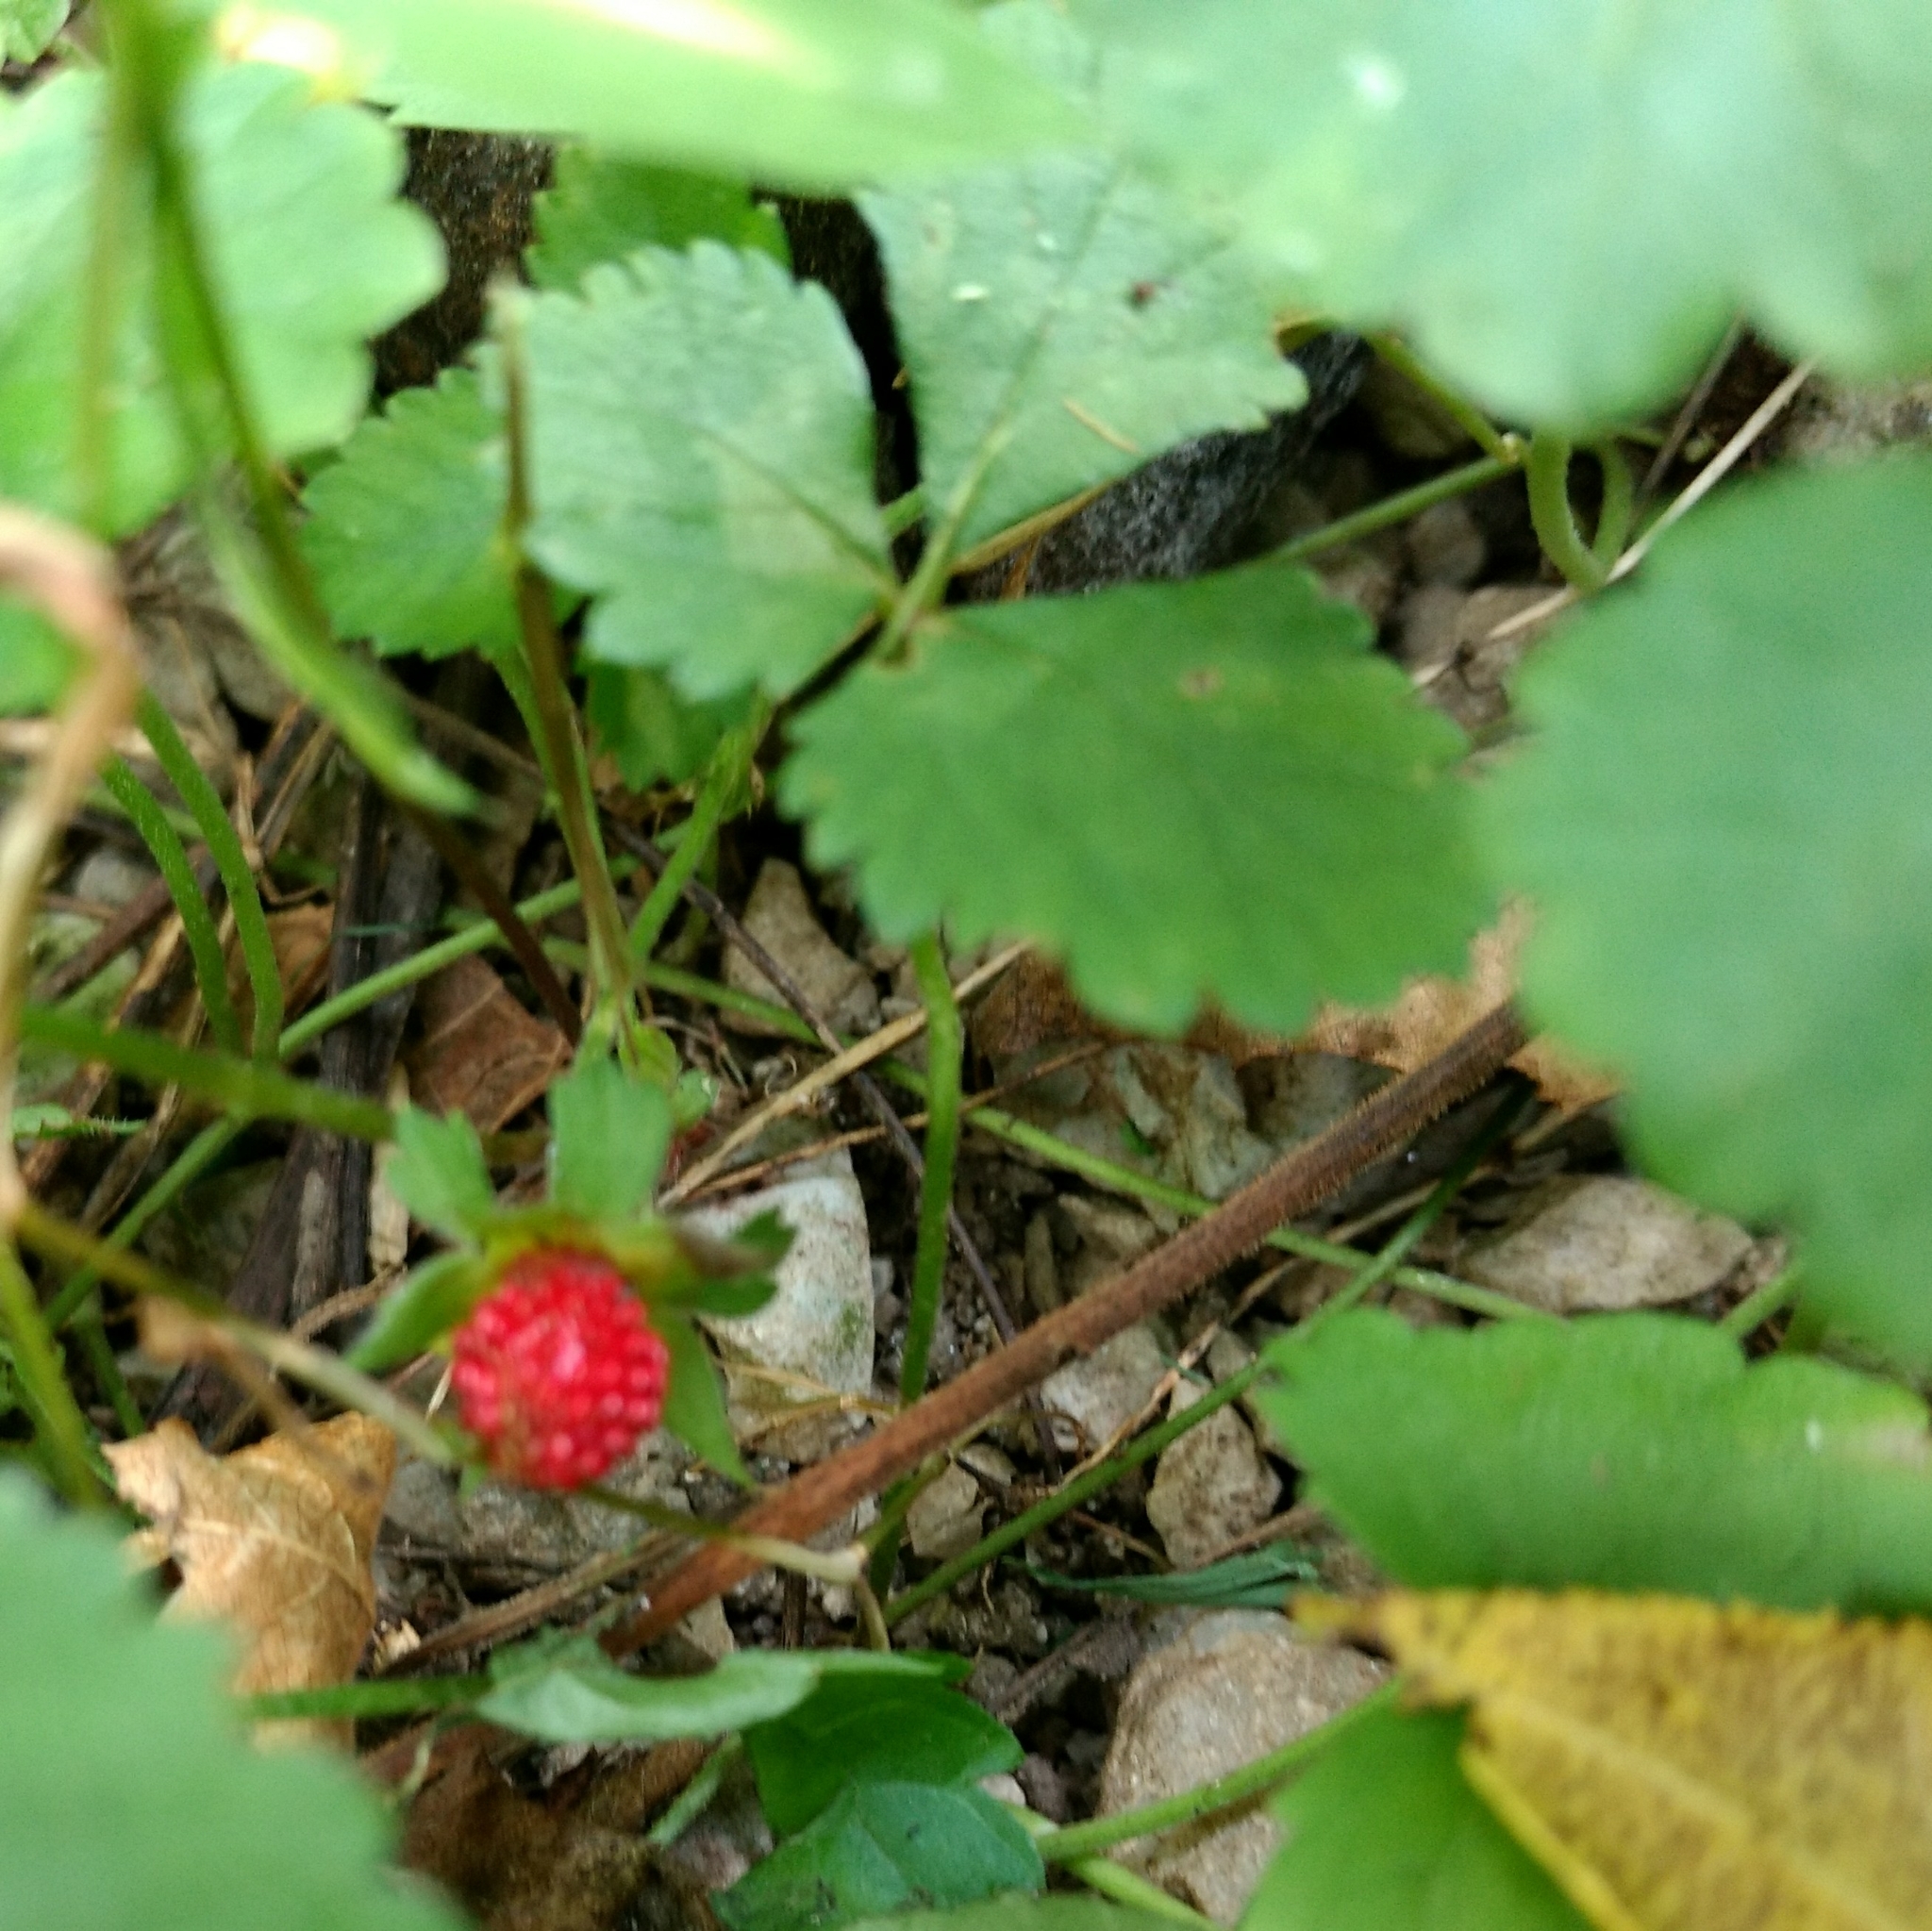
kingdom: Plantae
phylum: Tracheophyta
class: Magnoliopsida
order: Rosales
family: Rosaceae
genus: Potentilla
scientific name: Potentilla indica
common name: Yellow-flowered strawberry
